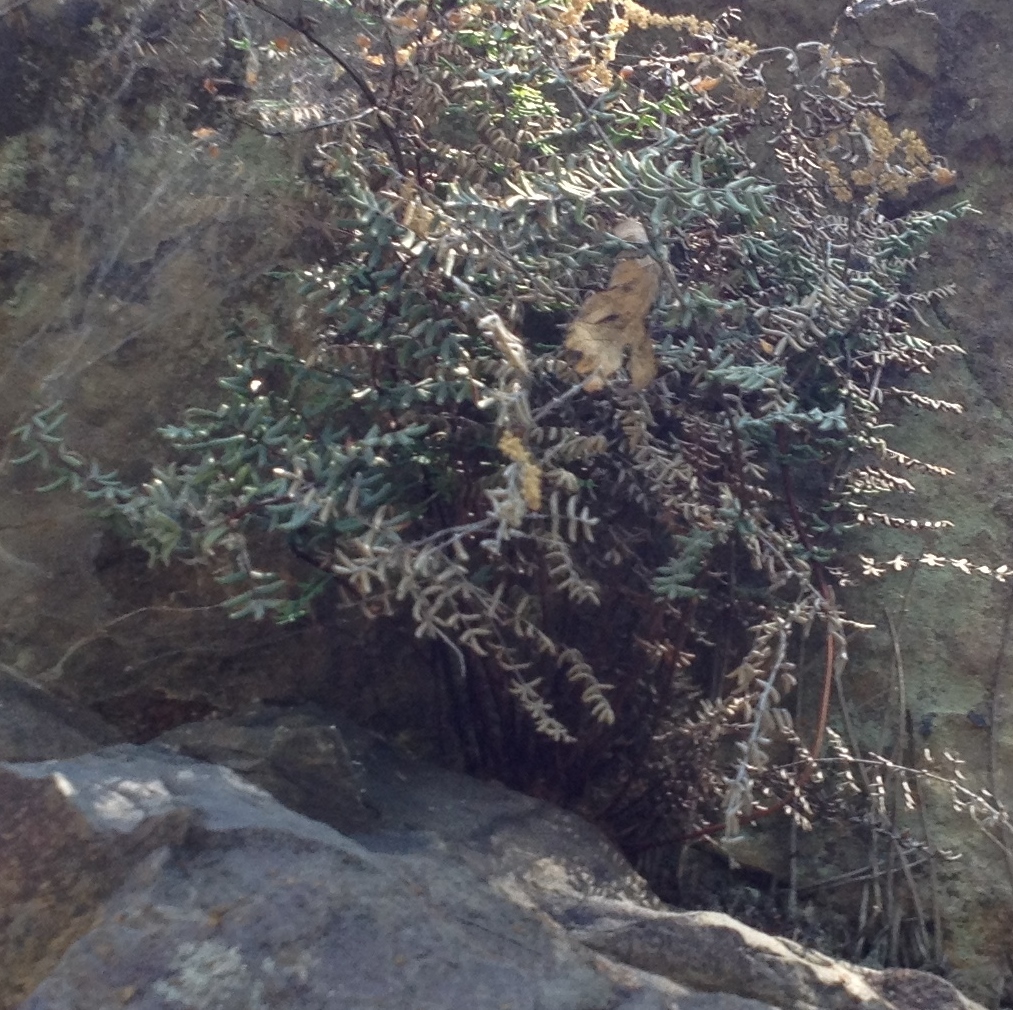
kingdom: Plantae
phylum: Tracheophyta
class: Polypodiopsida
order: Polypodiales
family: Pteridaceae
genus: Pellaea
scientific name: Pellaea mucronata
